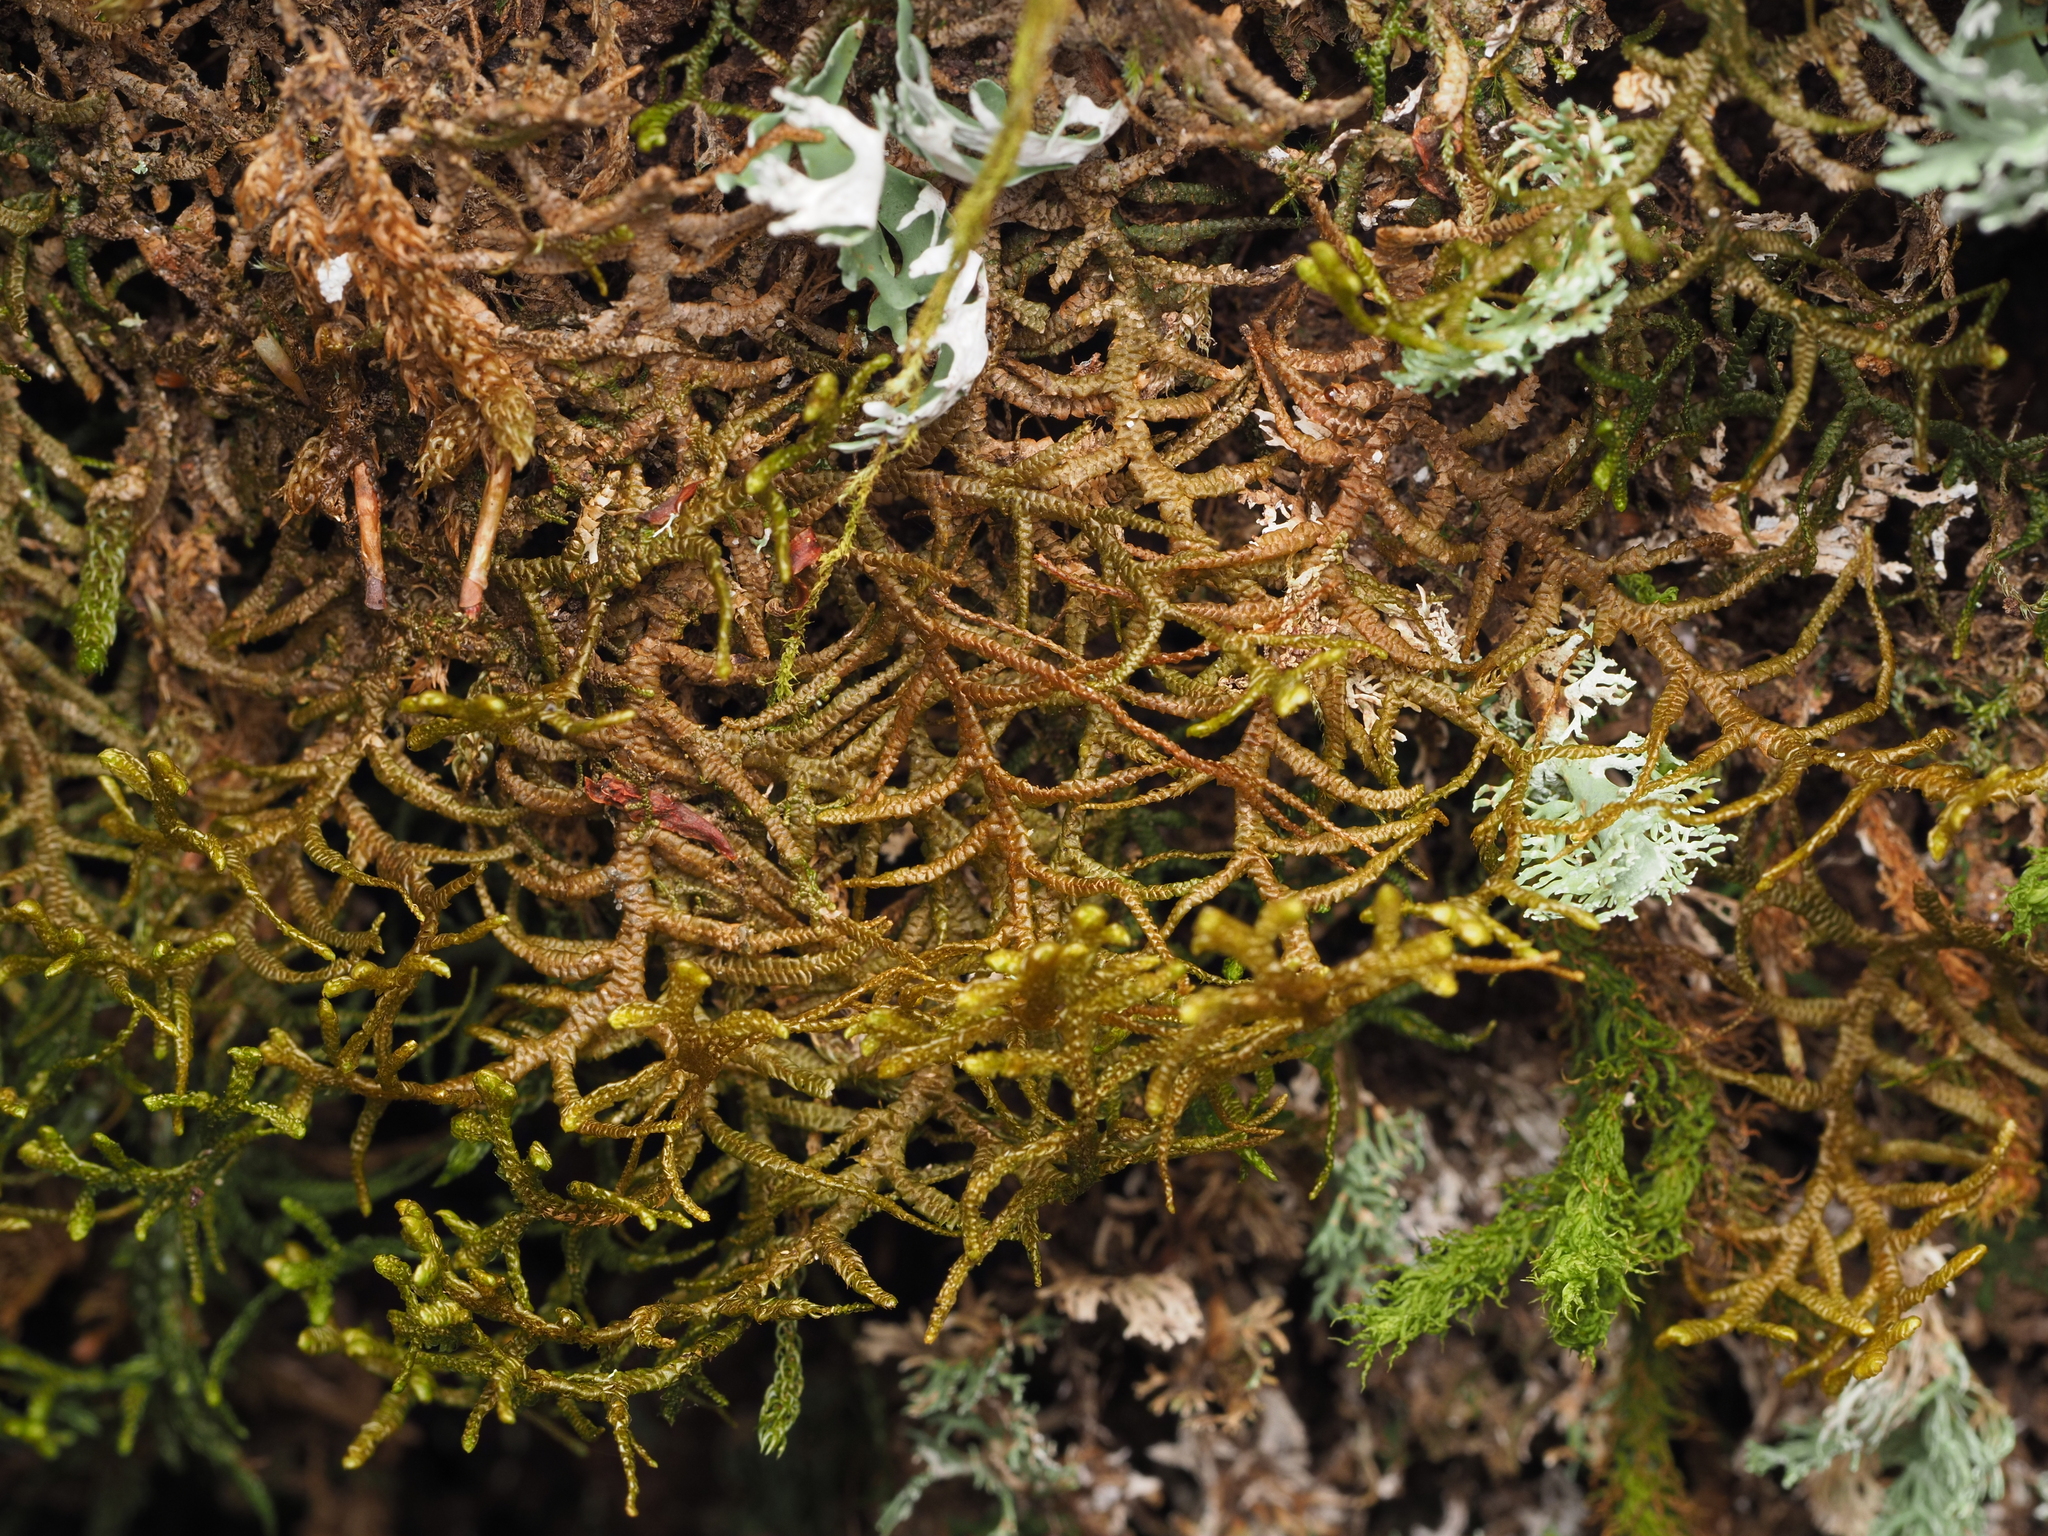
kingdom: Plantae
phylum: Marchantiophyta
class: Jungermanniopsida
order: Jungermanniales
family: Mastigophoraceae
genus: Dendromastigophora
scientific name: Dendromastigophora flagellifera
